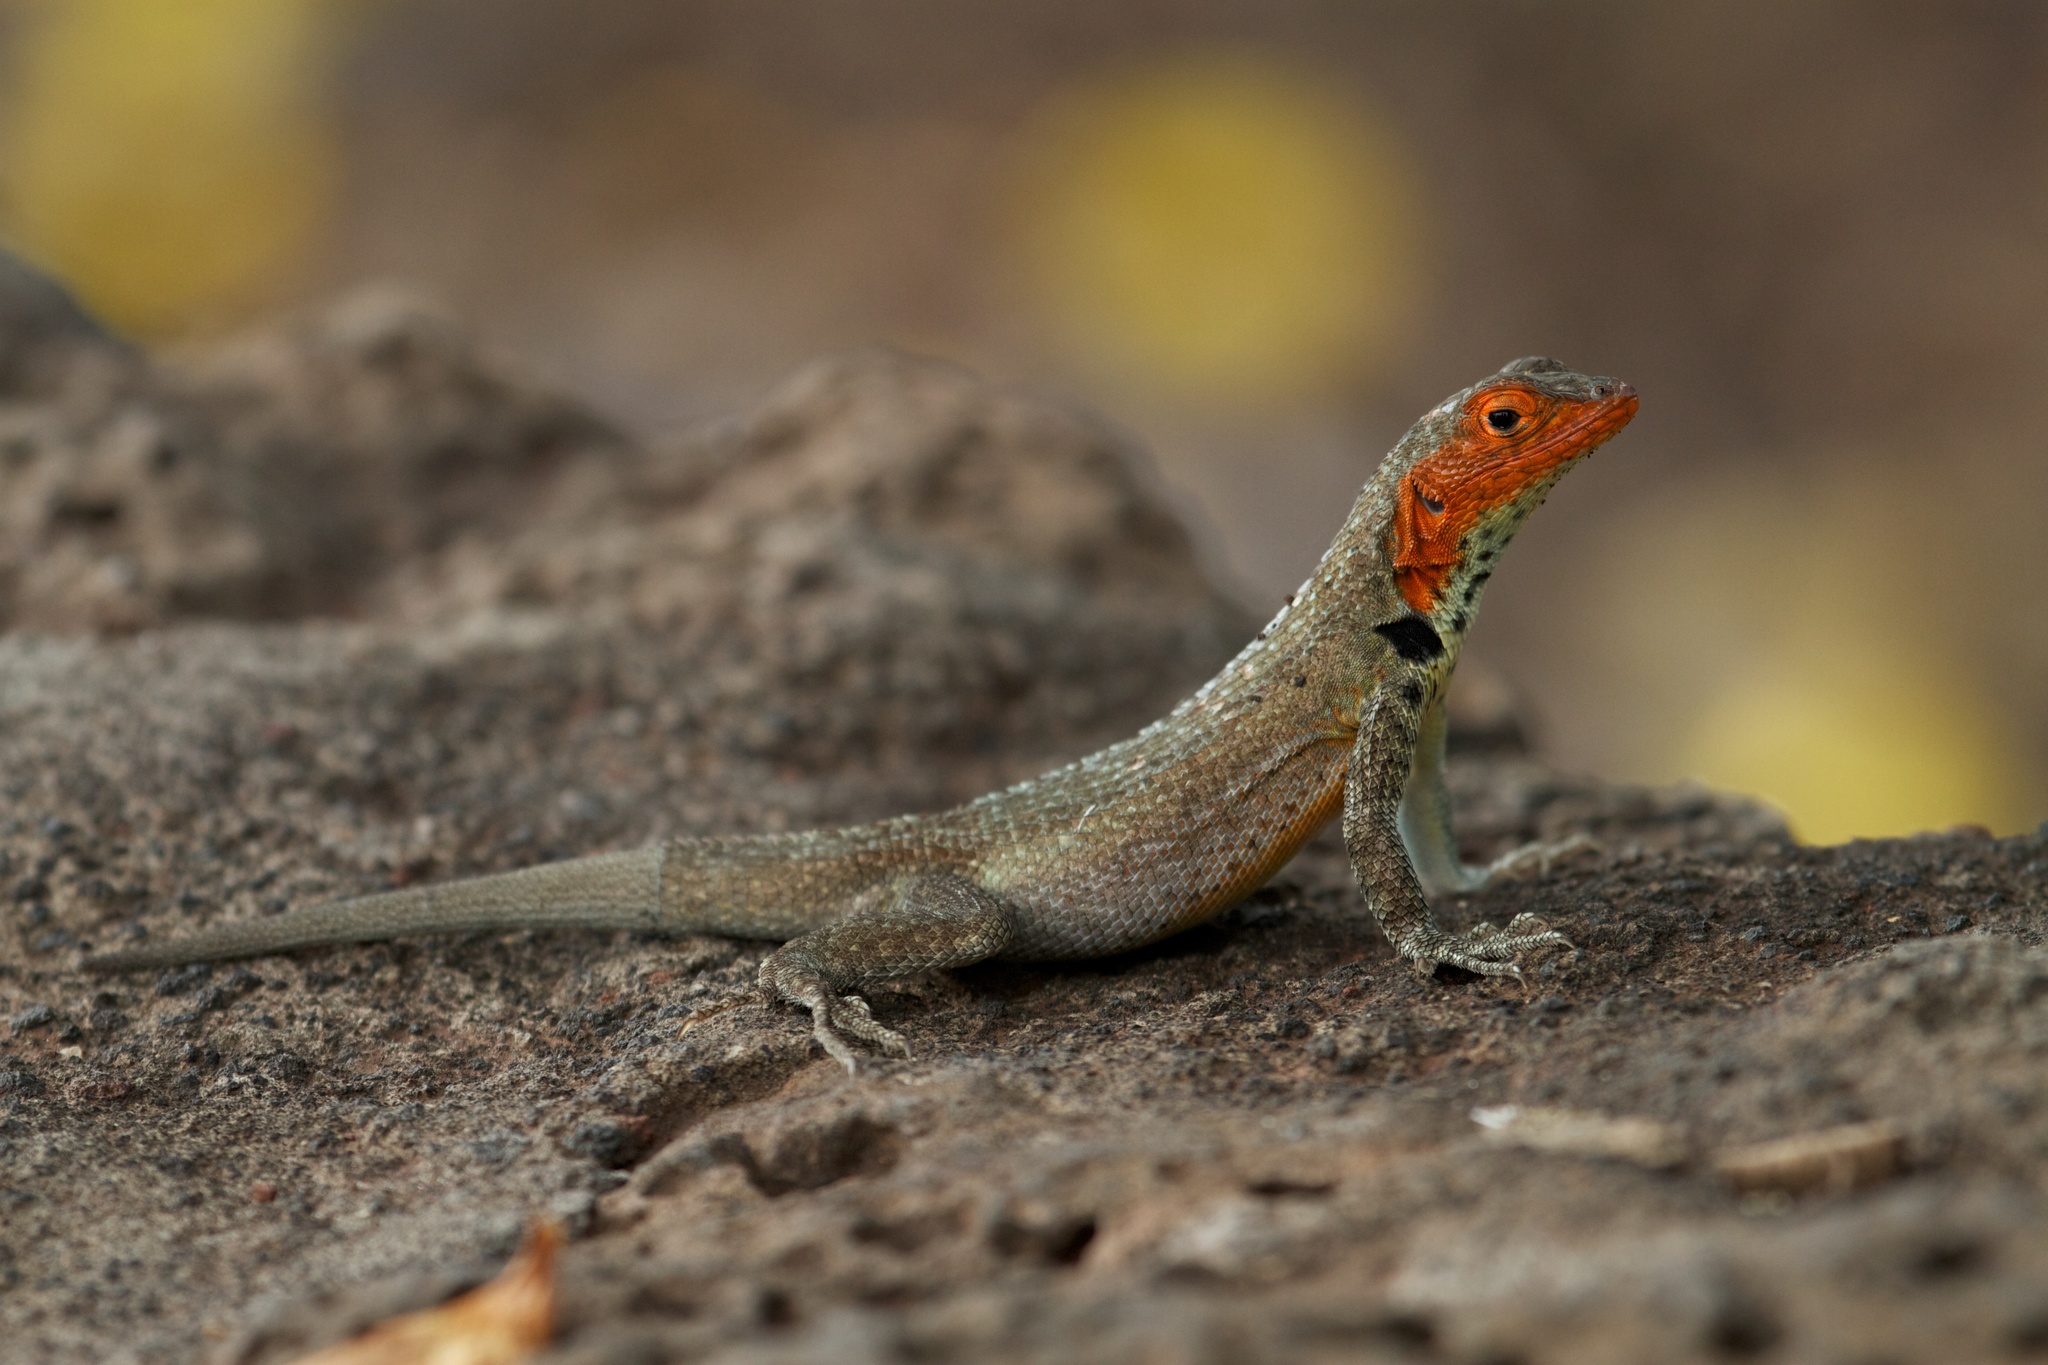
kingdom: Animalia
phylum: Chordata
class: Squamata
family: Tropiduridae
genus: Microlophus
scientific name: Microlophus indefatigabilis
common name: Galapagos lava lizard
